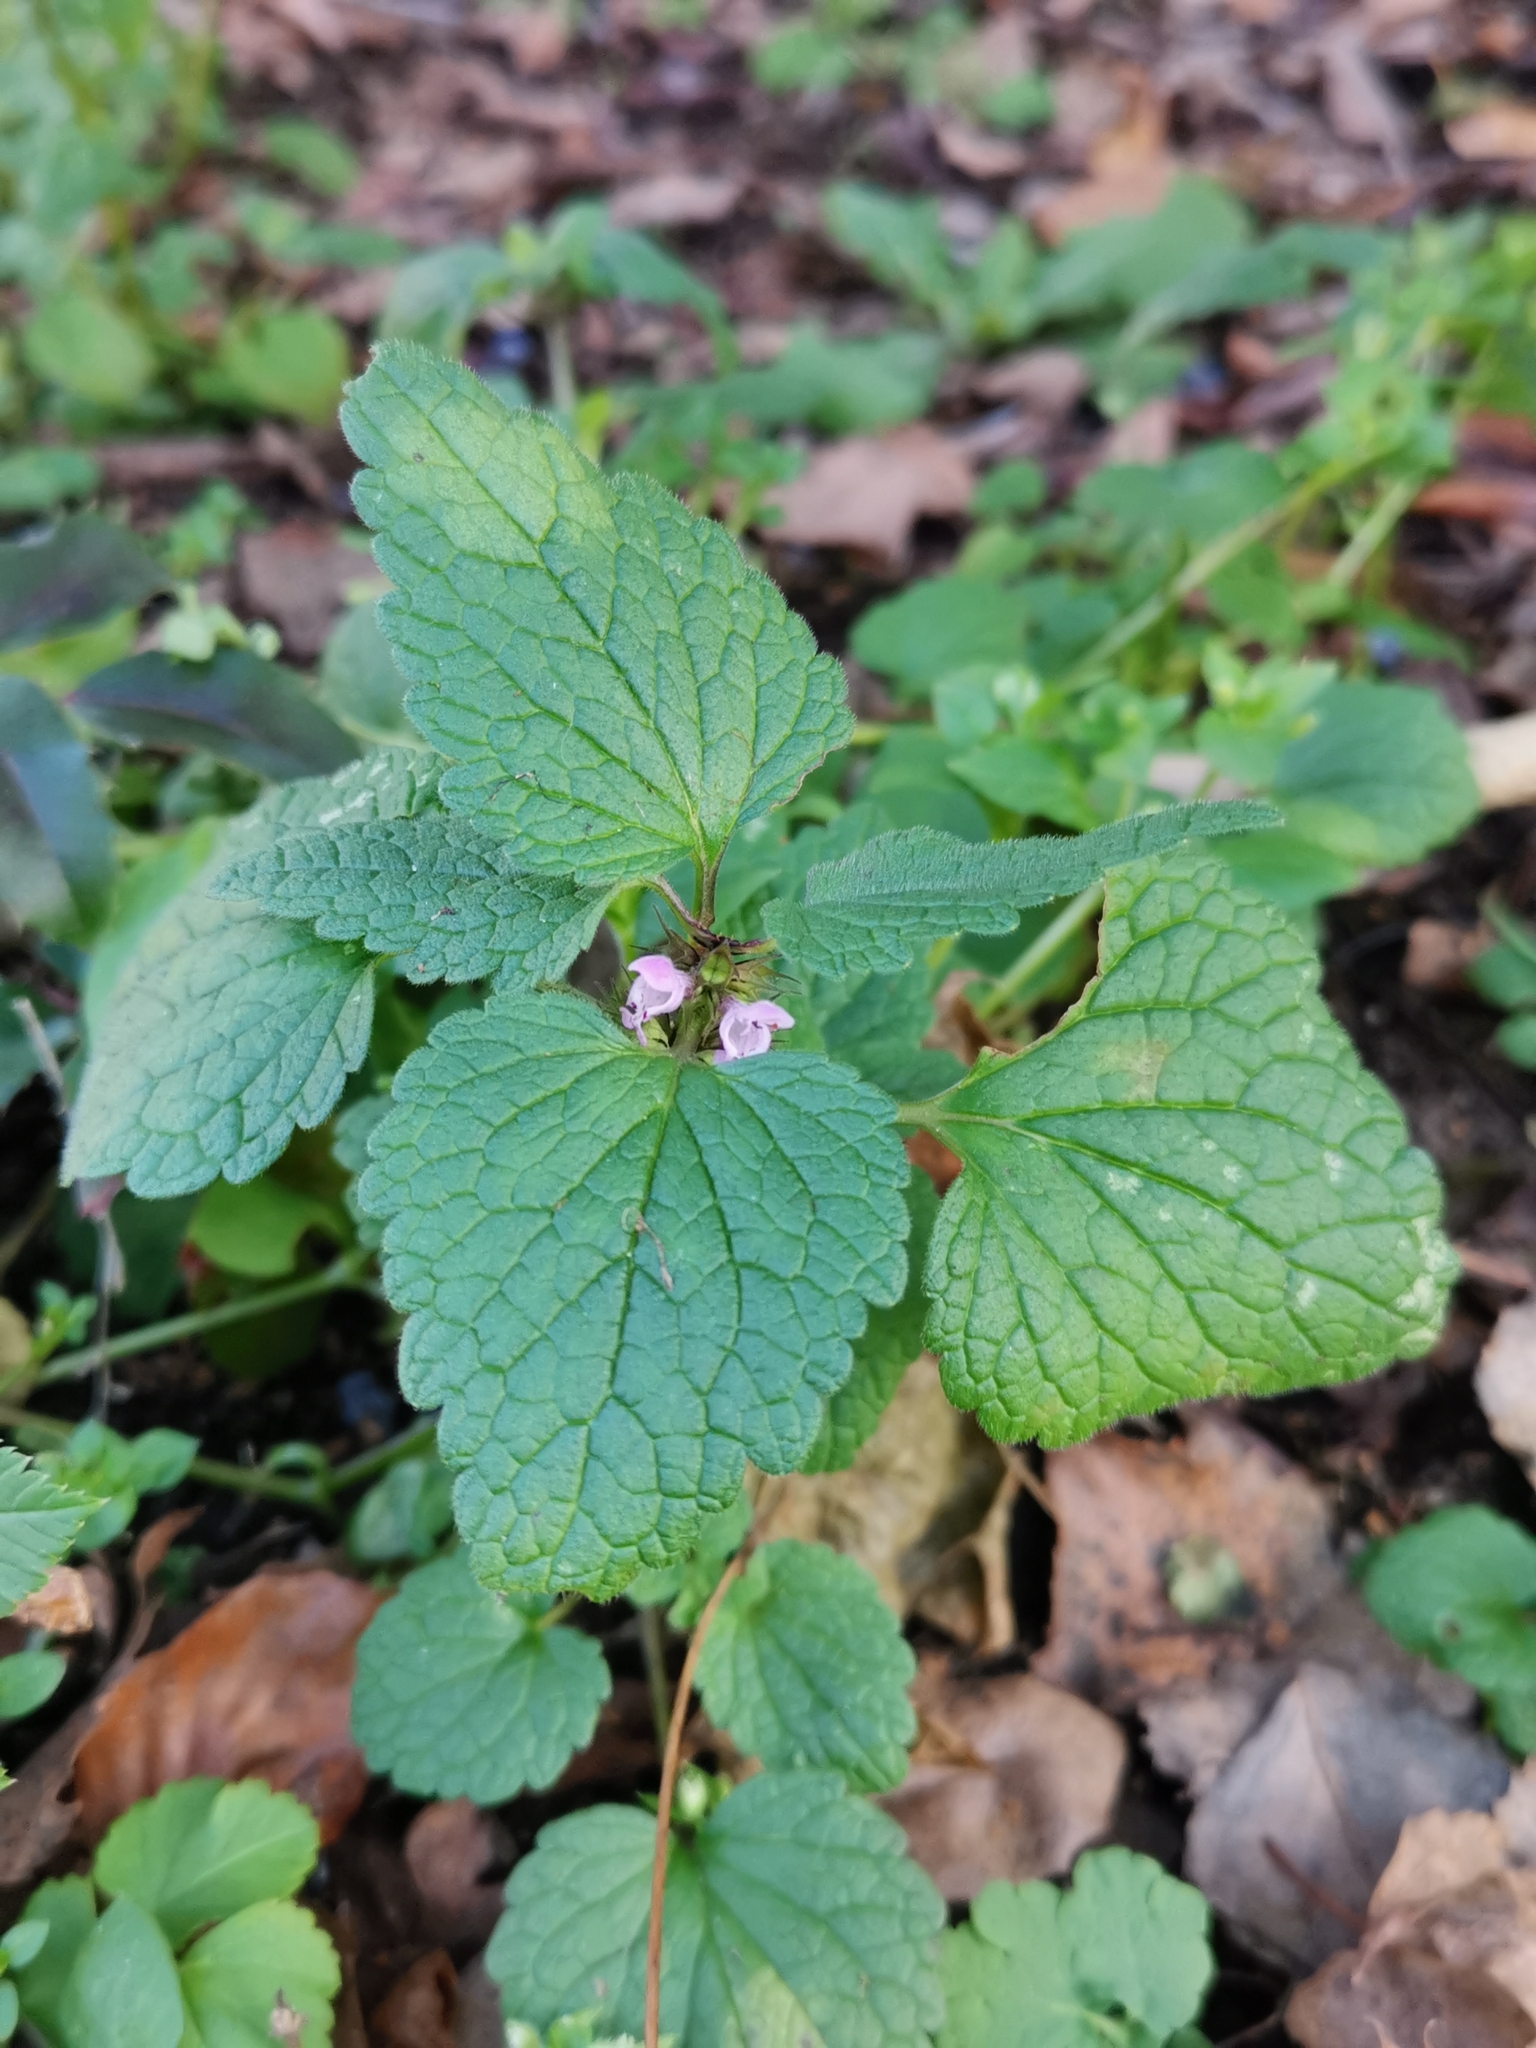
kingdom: Plantae
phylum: Tracheophyta
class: Magnoliopsida
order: Lamiales
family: Lamiaceae
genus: Lamium
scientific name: Lamium purpureum
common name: Red dead-nettle
